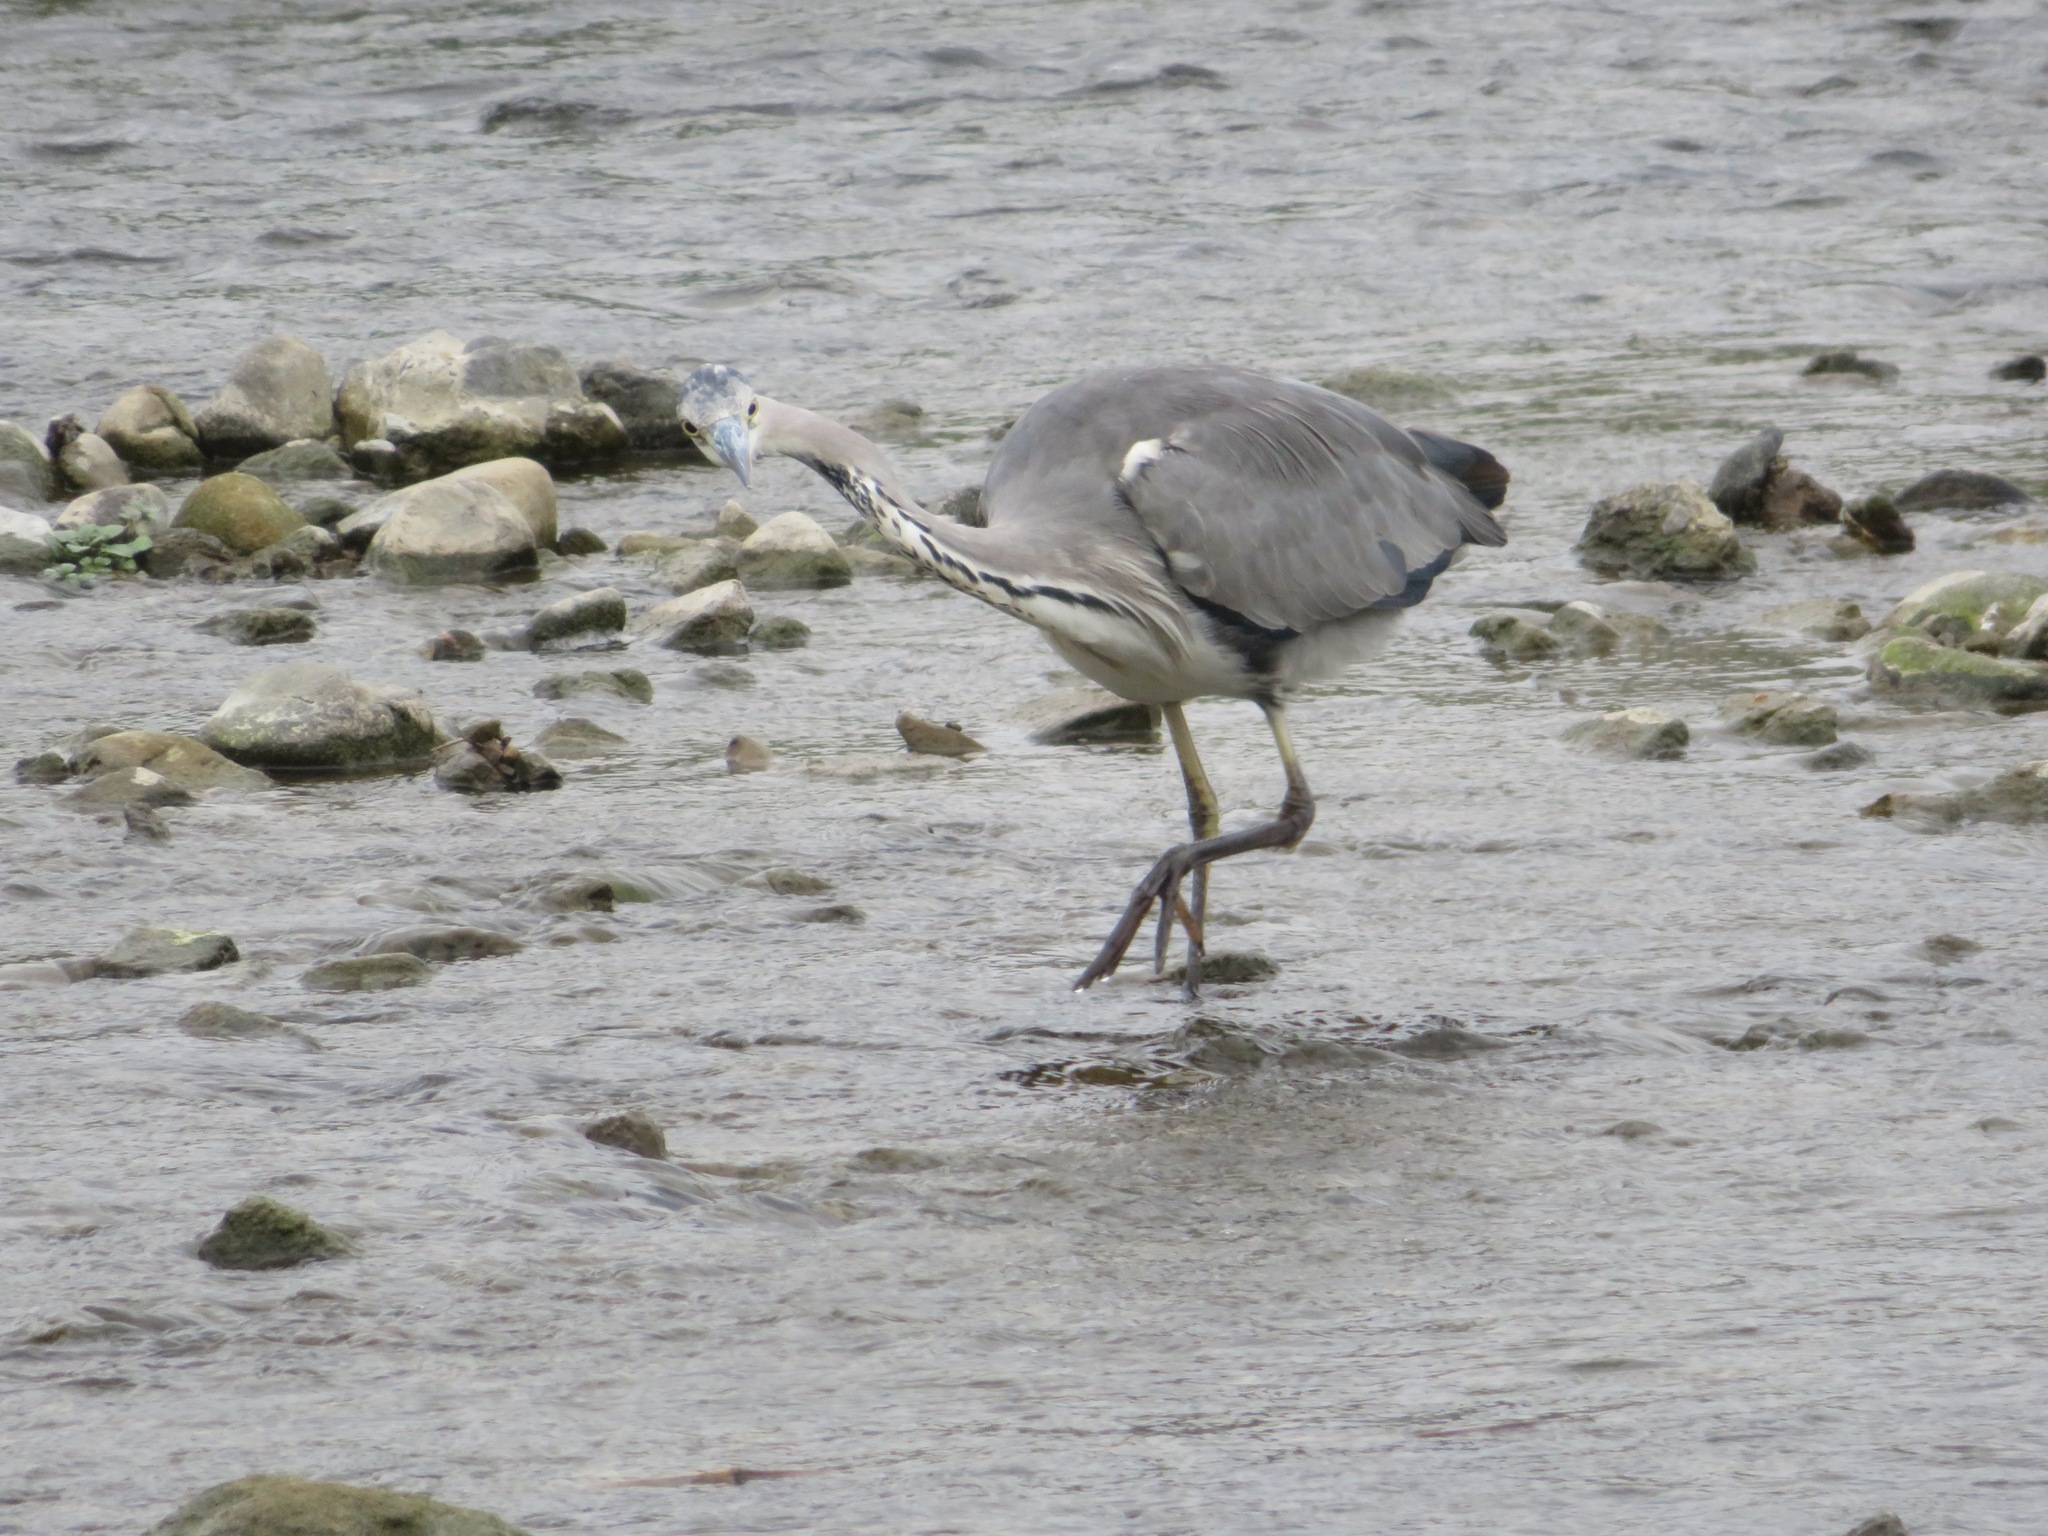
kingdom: Animalia
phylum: Chordata
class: Aves
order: Pelecaniformes
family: Ardeidae
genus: Ardea
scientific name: Ardea cinerea
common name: Grey heron
